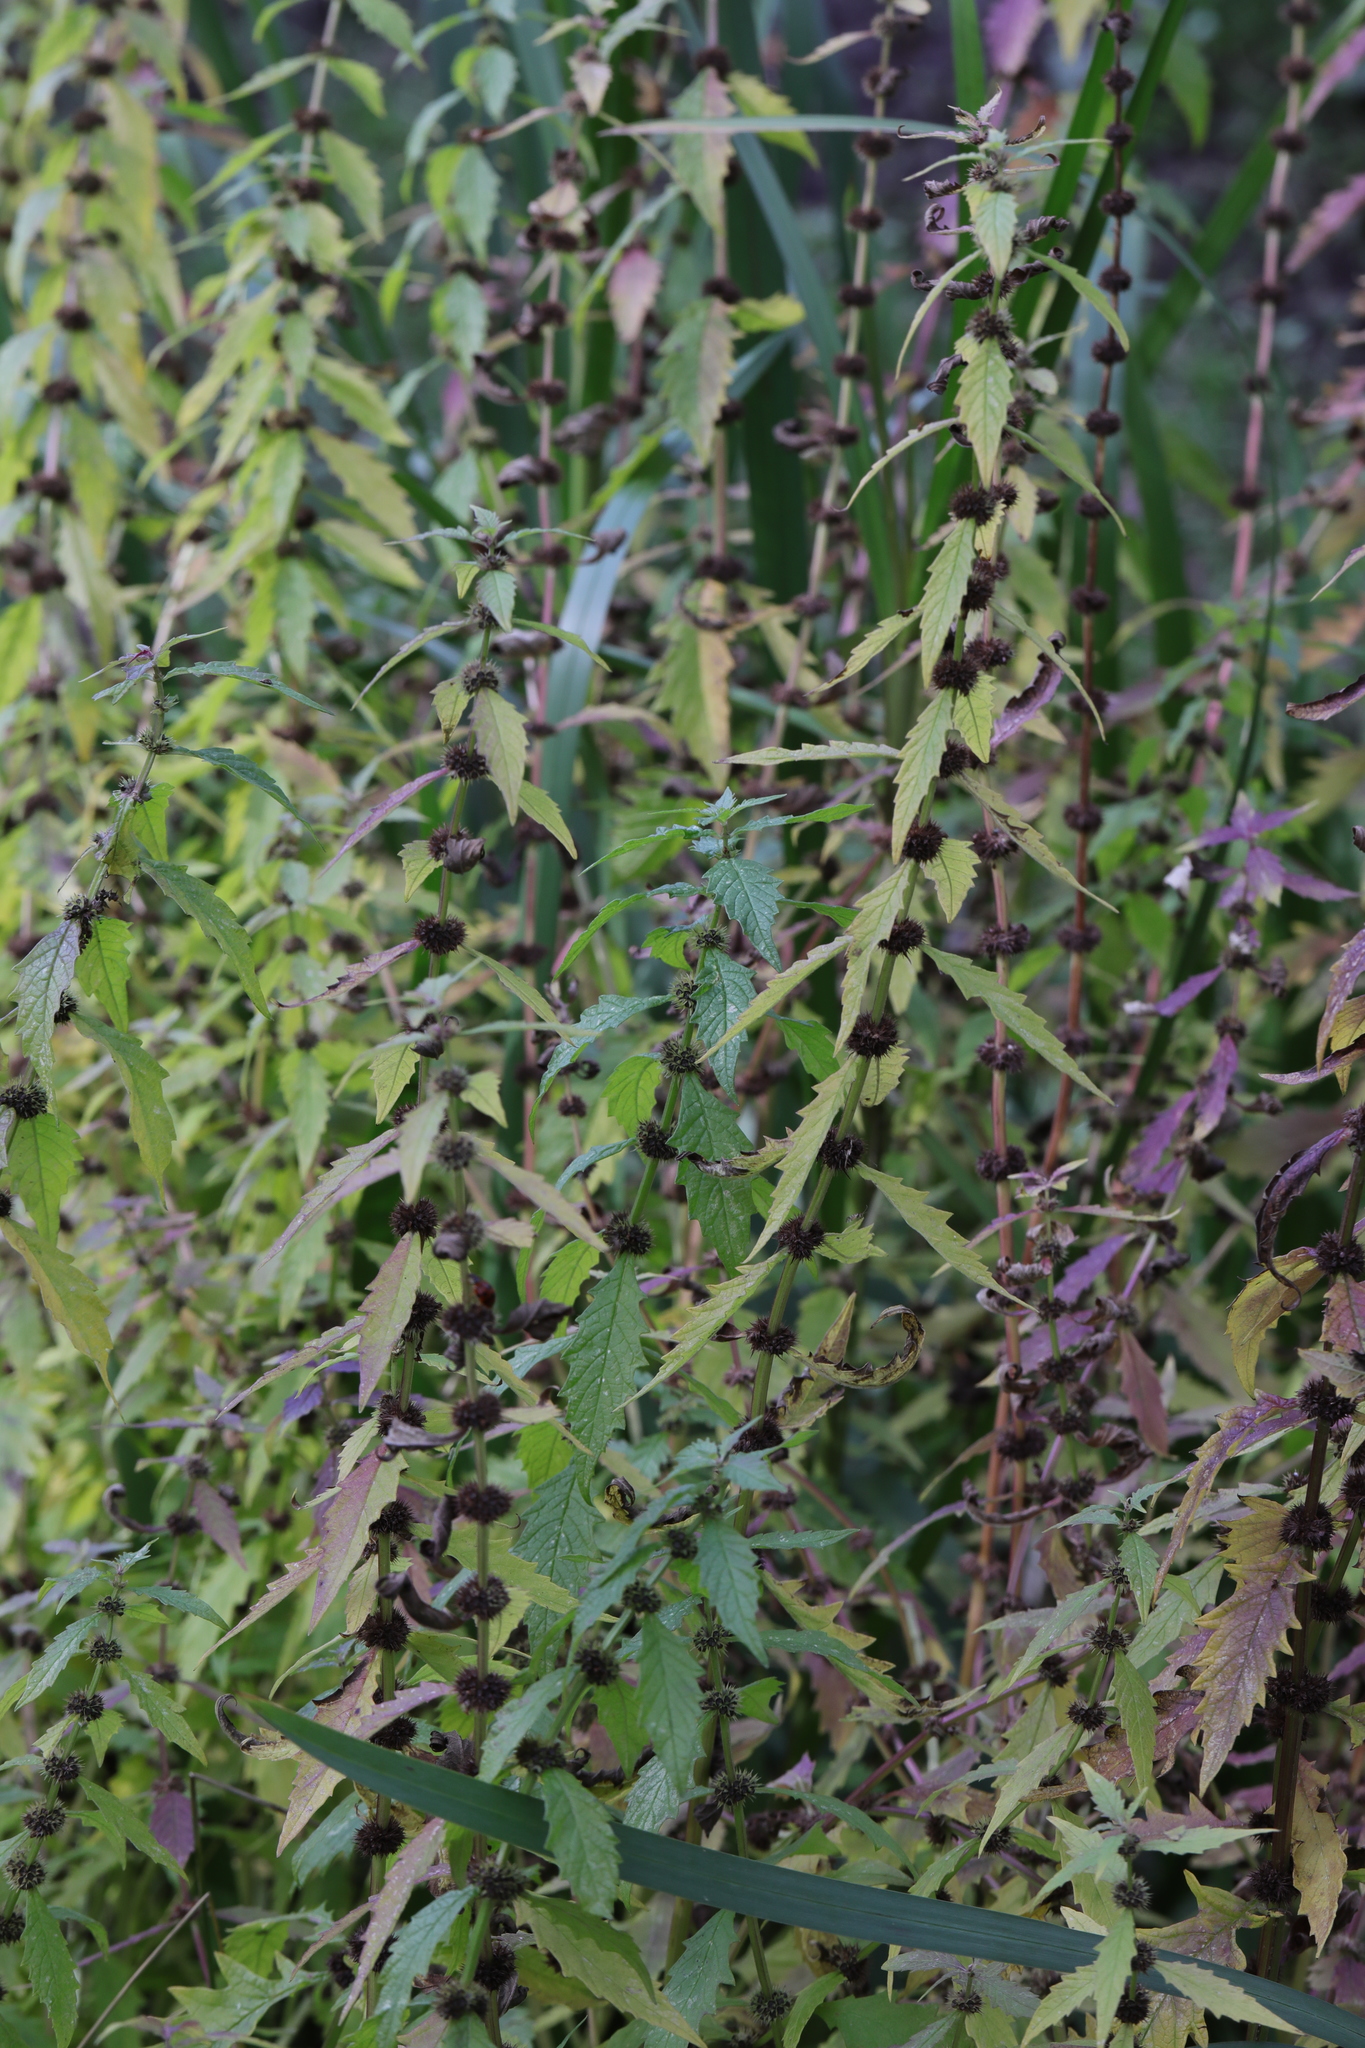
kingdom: Plantae
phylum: Tracheophyta
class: Magnoliopsida
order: Lamiales
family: Lamiaceae
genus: Lycopus
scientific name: Lycopus europaeus
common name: European bugleweed
